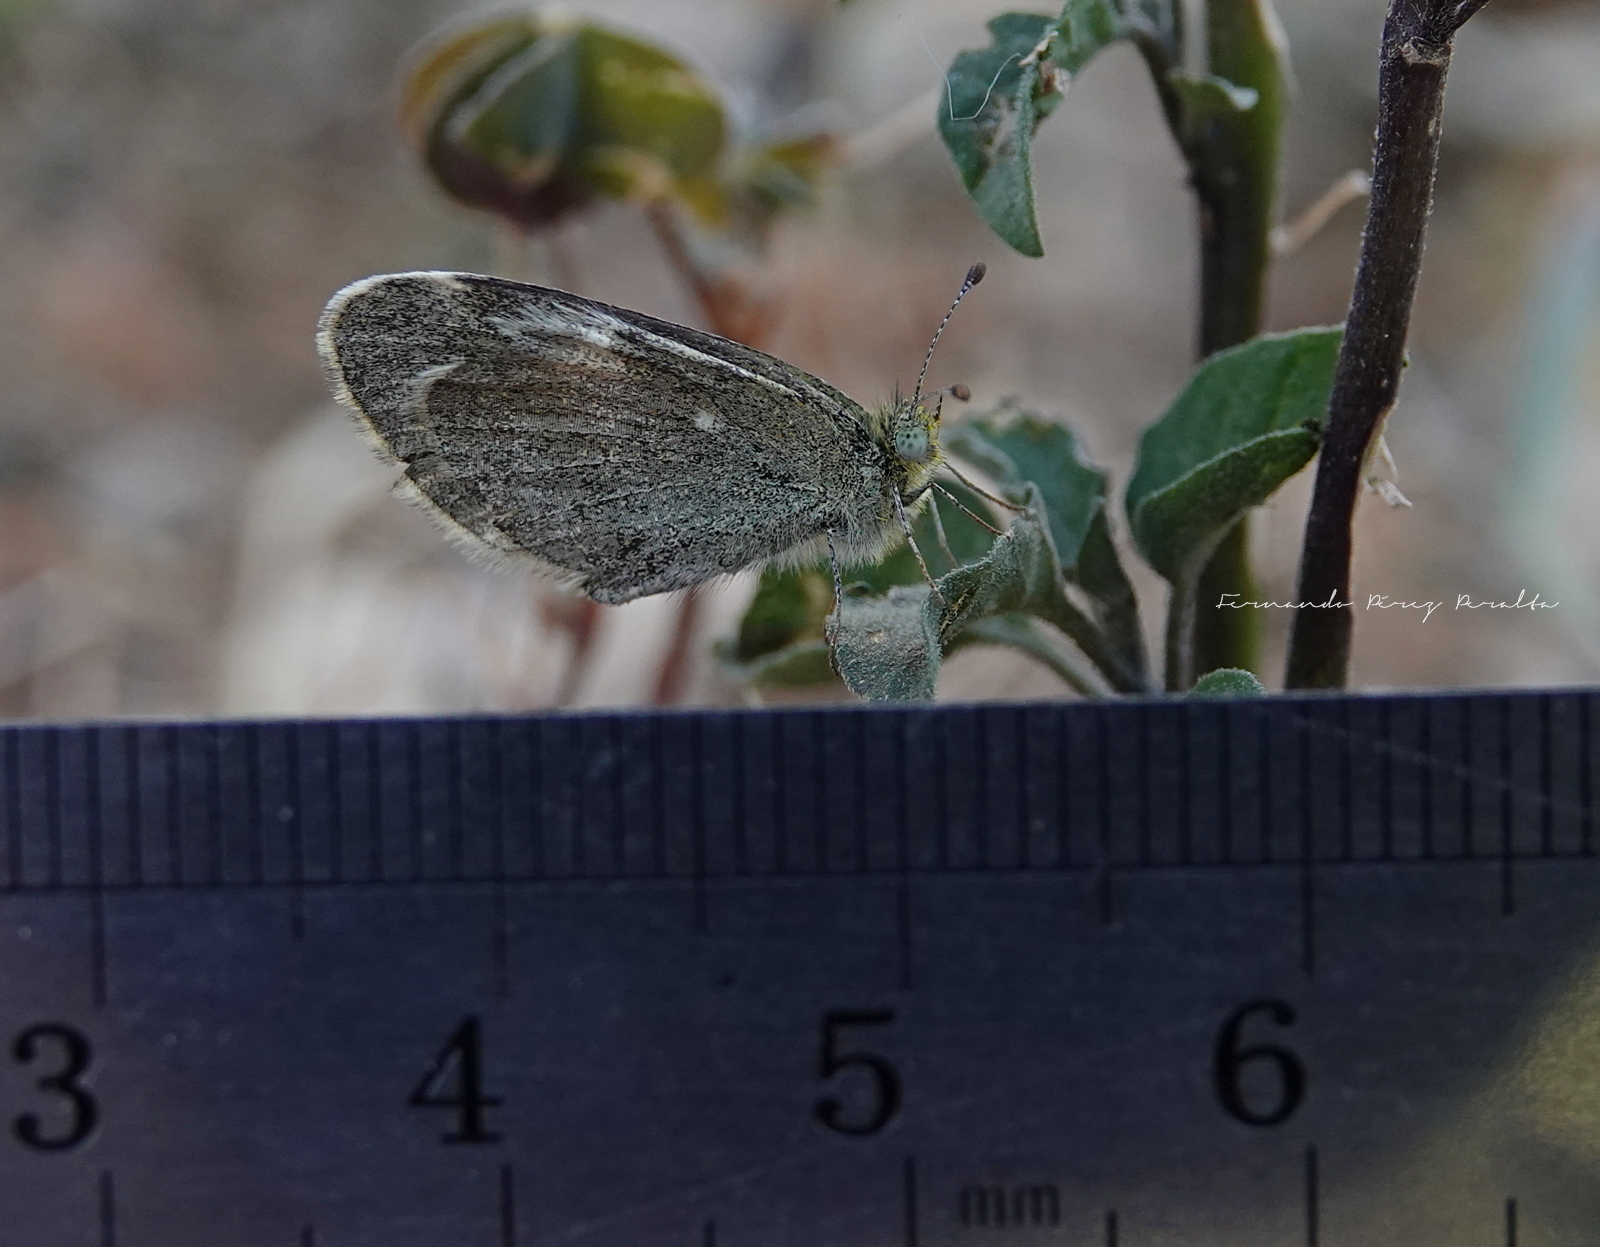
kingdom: Animalia
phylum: Arthropoda
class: Insecta
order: Lepidoptera
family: Pieridae
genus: Nathalis
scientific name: Nathalis iole
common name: Dainty sulphur
